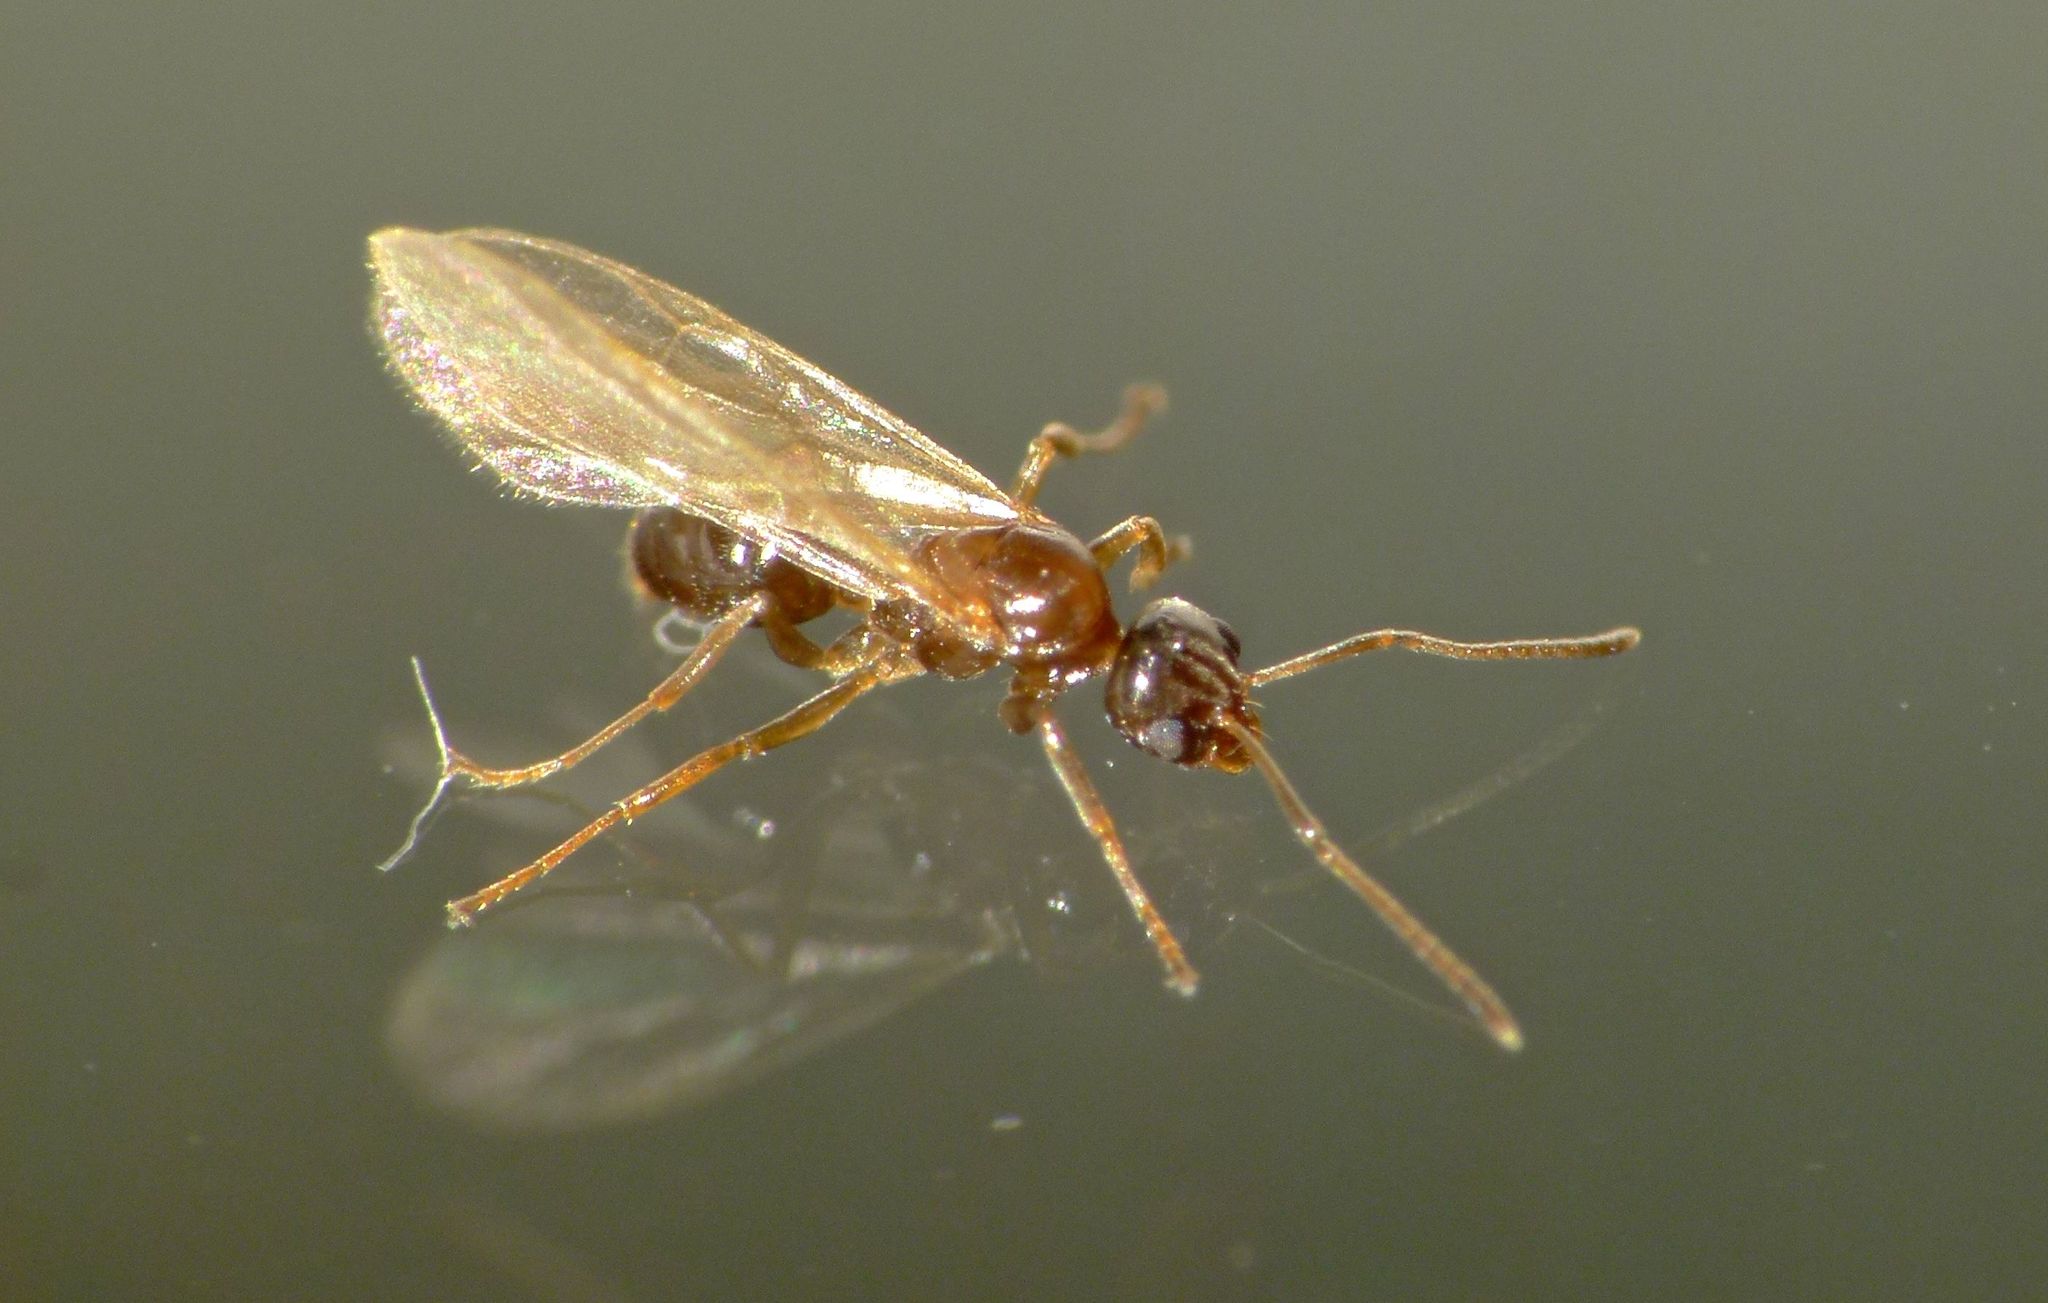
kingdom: Animalia
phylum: Arthropoda
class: Insecta
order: Hymenoptera
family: Formicidae
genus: Prolasius
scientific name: Prolasius advenus
